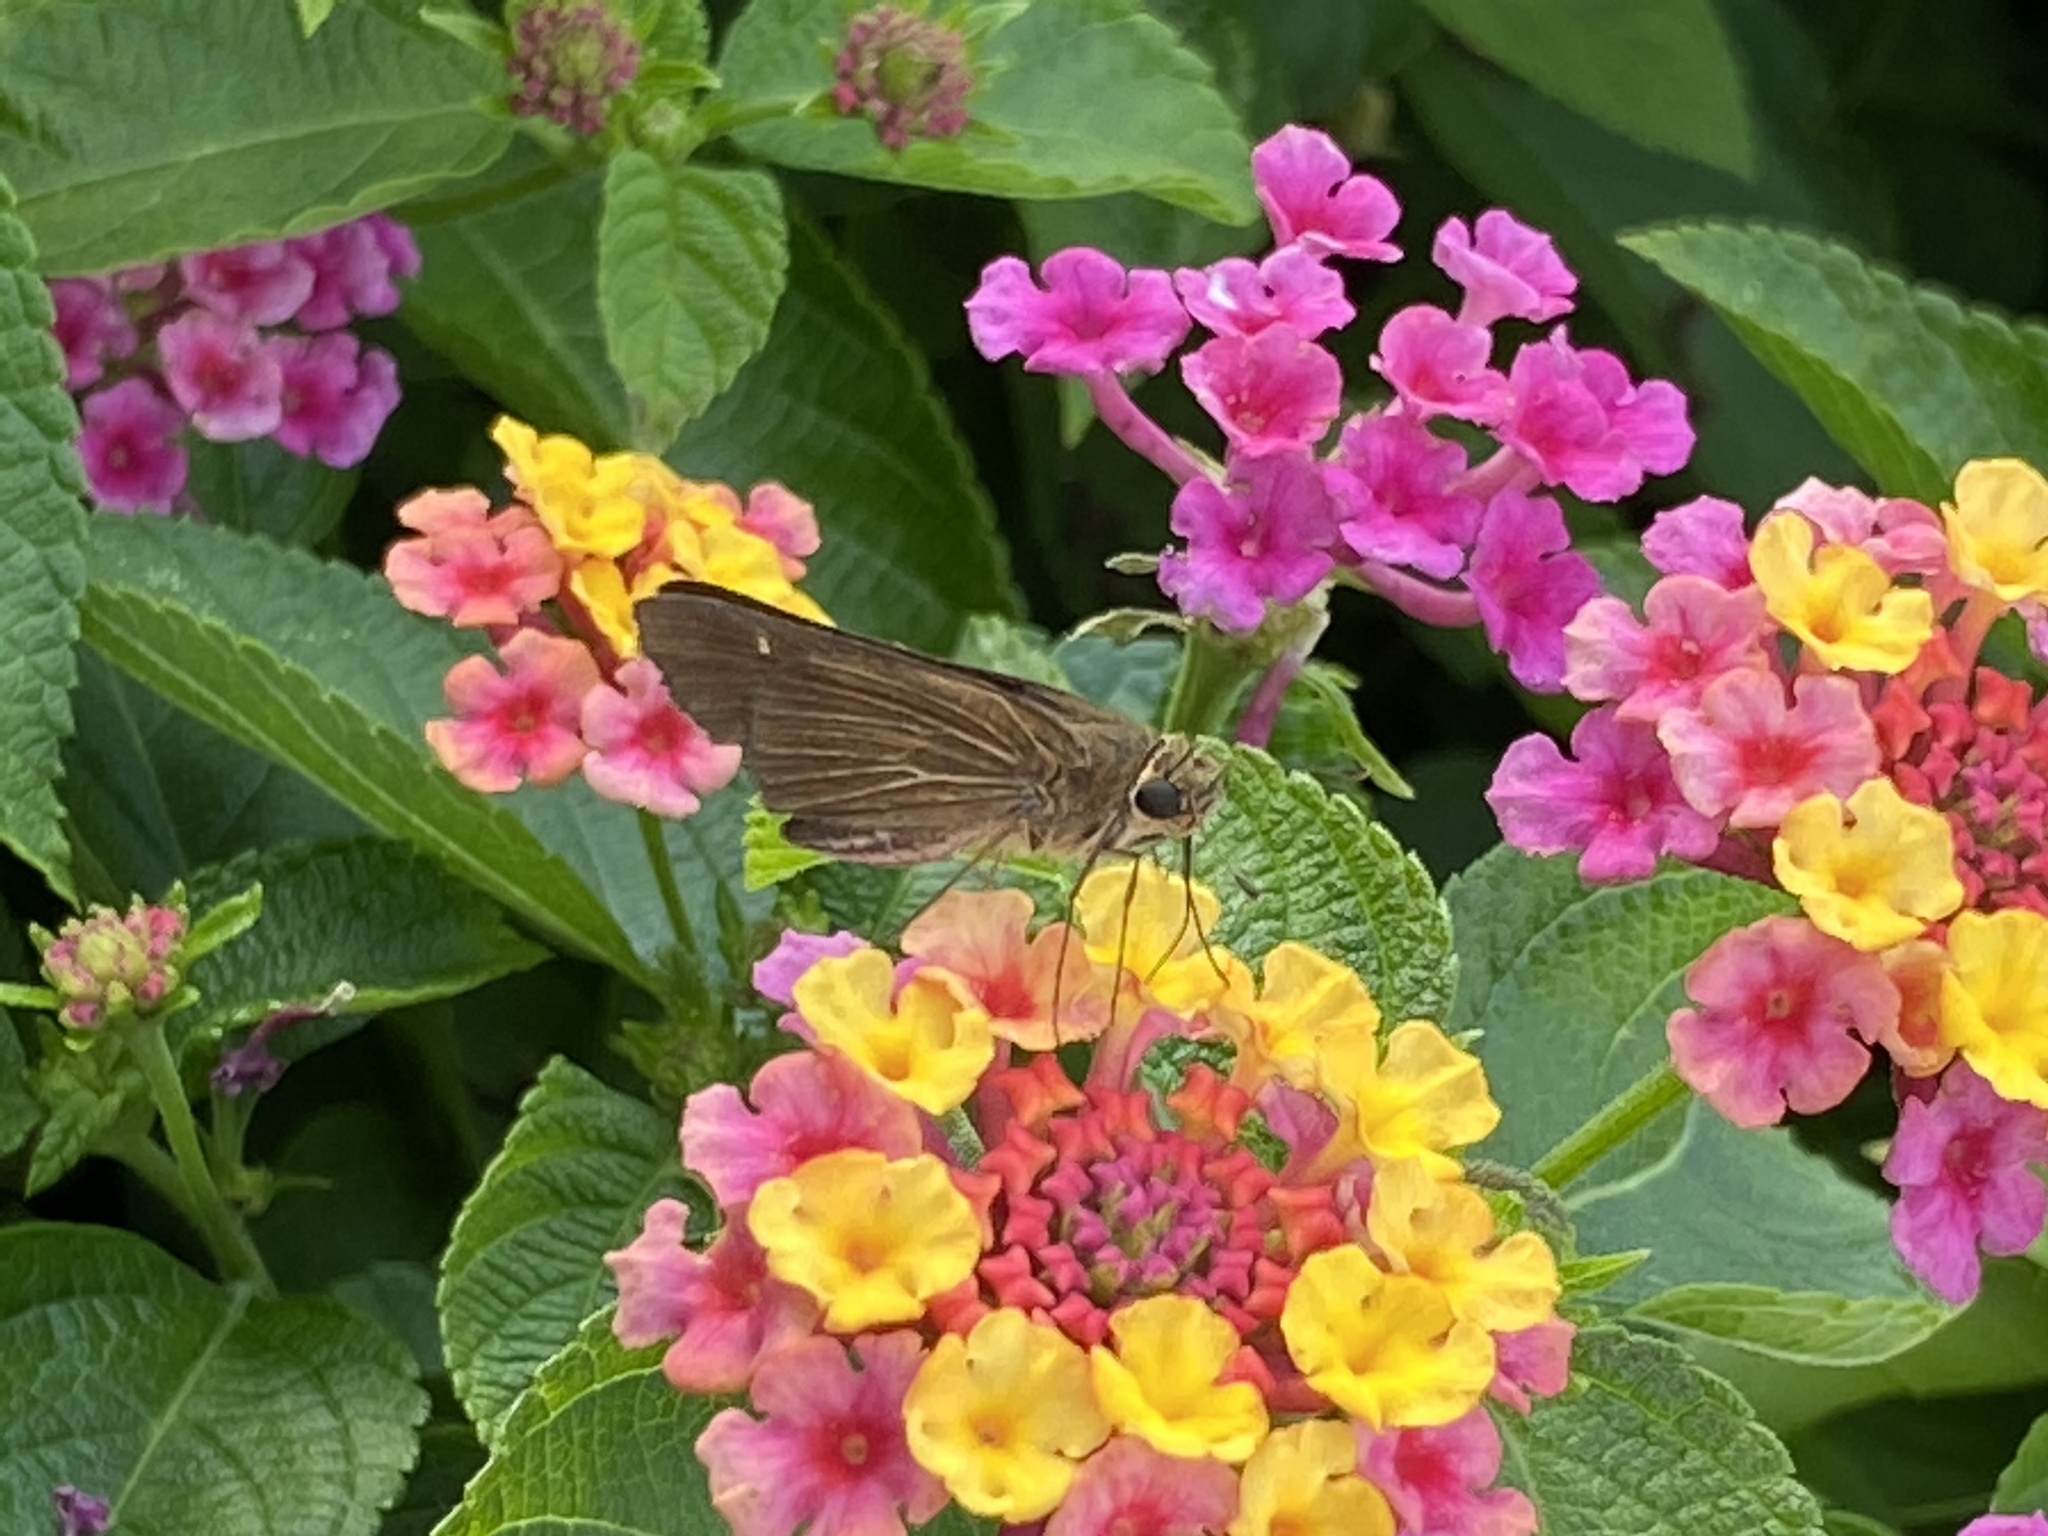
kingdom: Animalia
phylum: Arthropoda
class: Insecta
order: Lepidoptera
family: Hesperiidae
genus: Panoquina
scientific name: Panoquina ocola
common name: Ocola skipper
